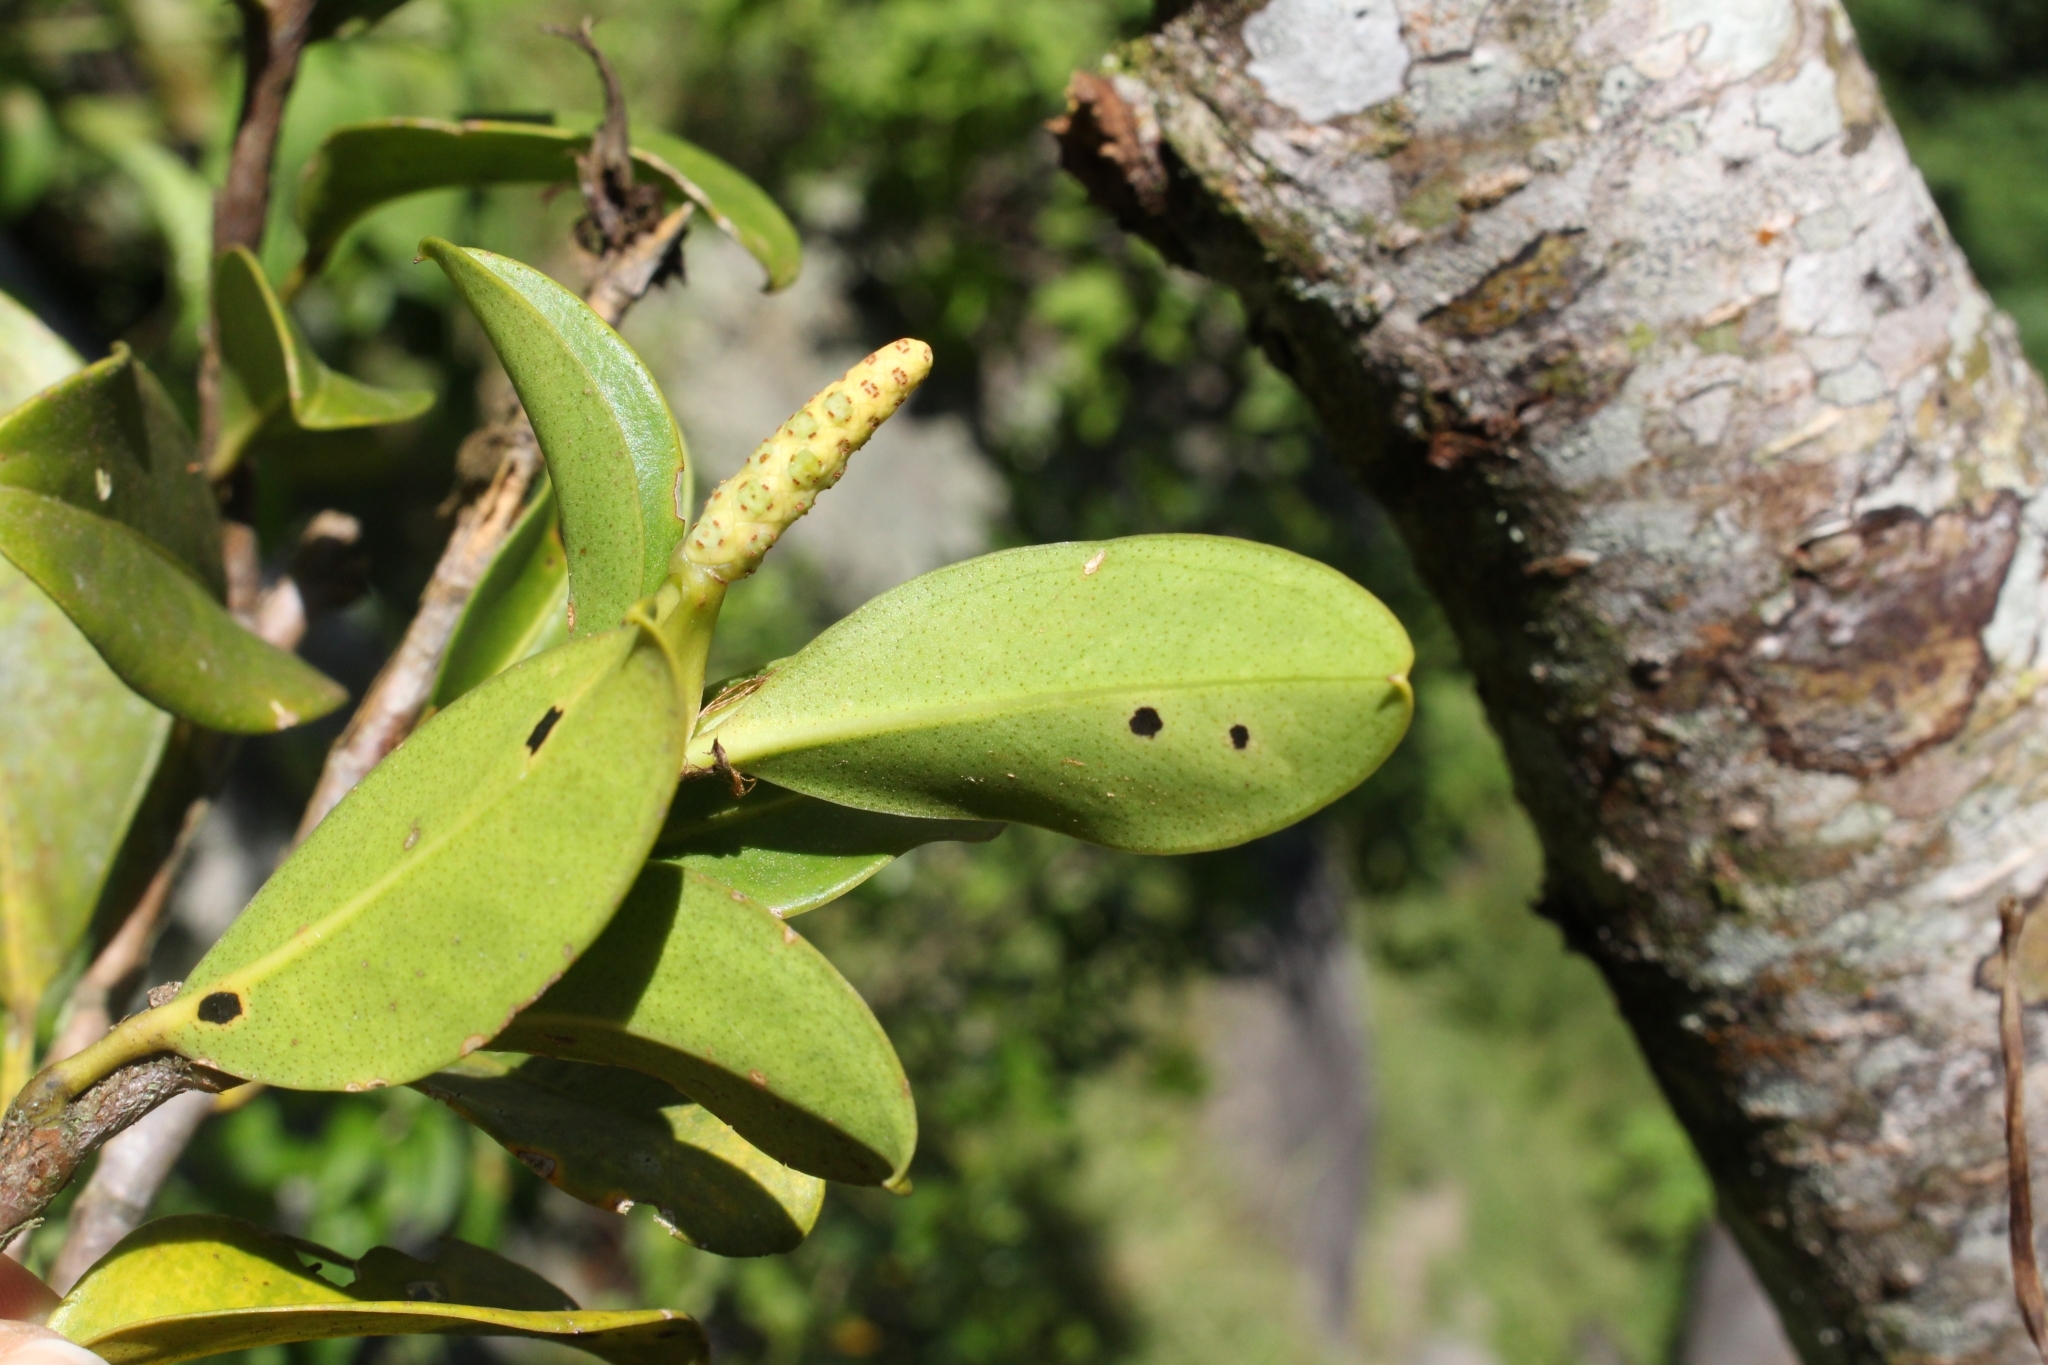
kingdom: Plantae
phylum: Tracheophyta
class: Liliopsida
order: Alismatales
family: Araceae
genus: Anthurium
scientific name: Anthurium scandens
